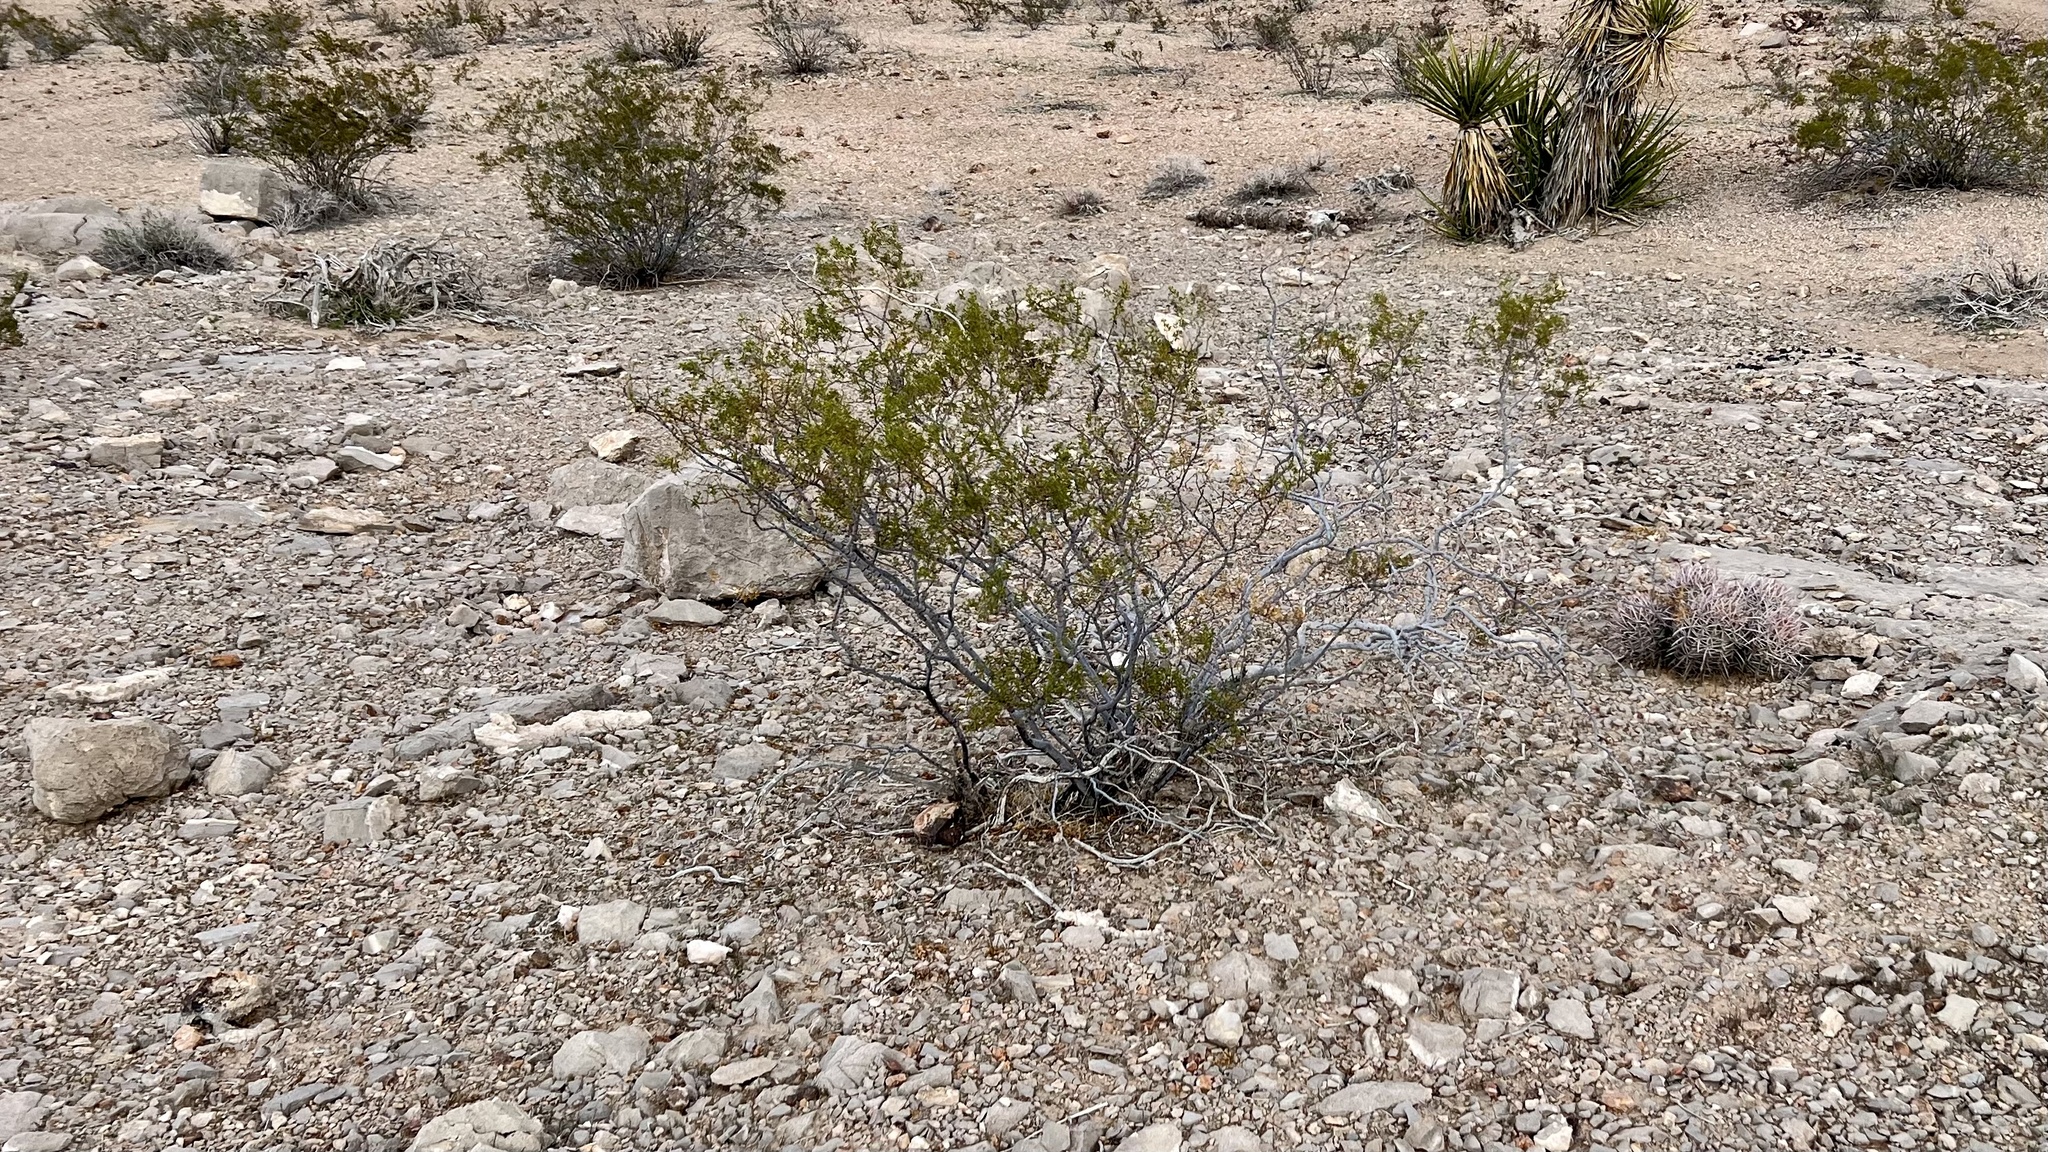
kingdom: Plantae
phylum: Tracheophyta
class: Magnoliopsida
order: Zygophyllales
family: Zygophyllaceae
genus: Larrea
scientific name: Larrea tridentata
